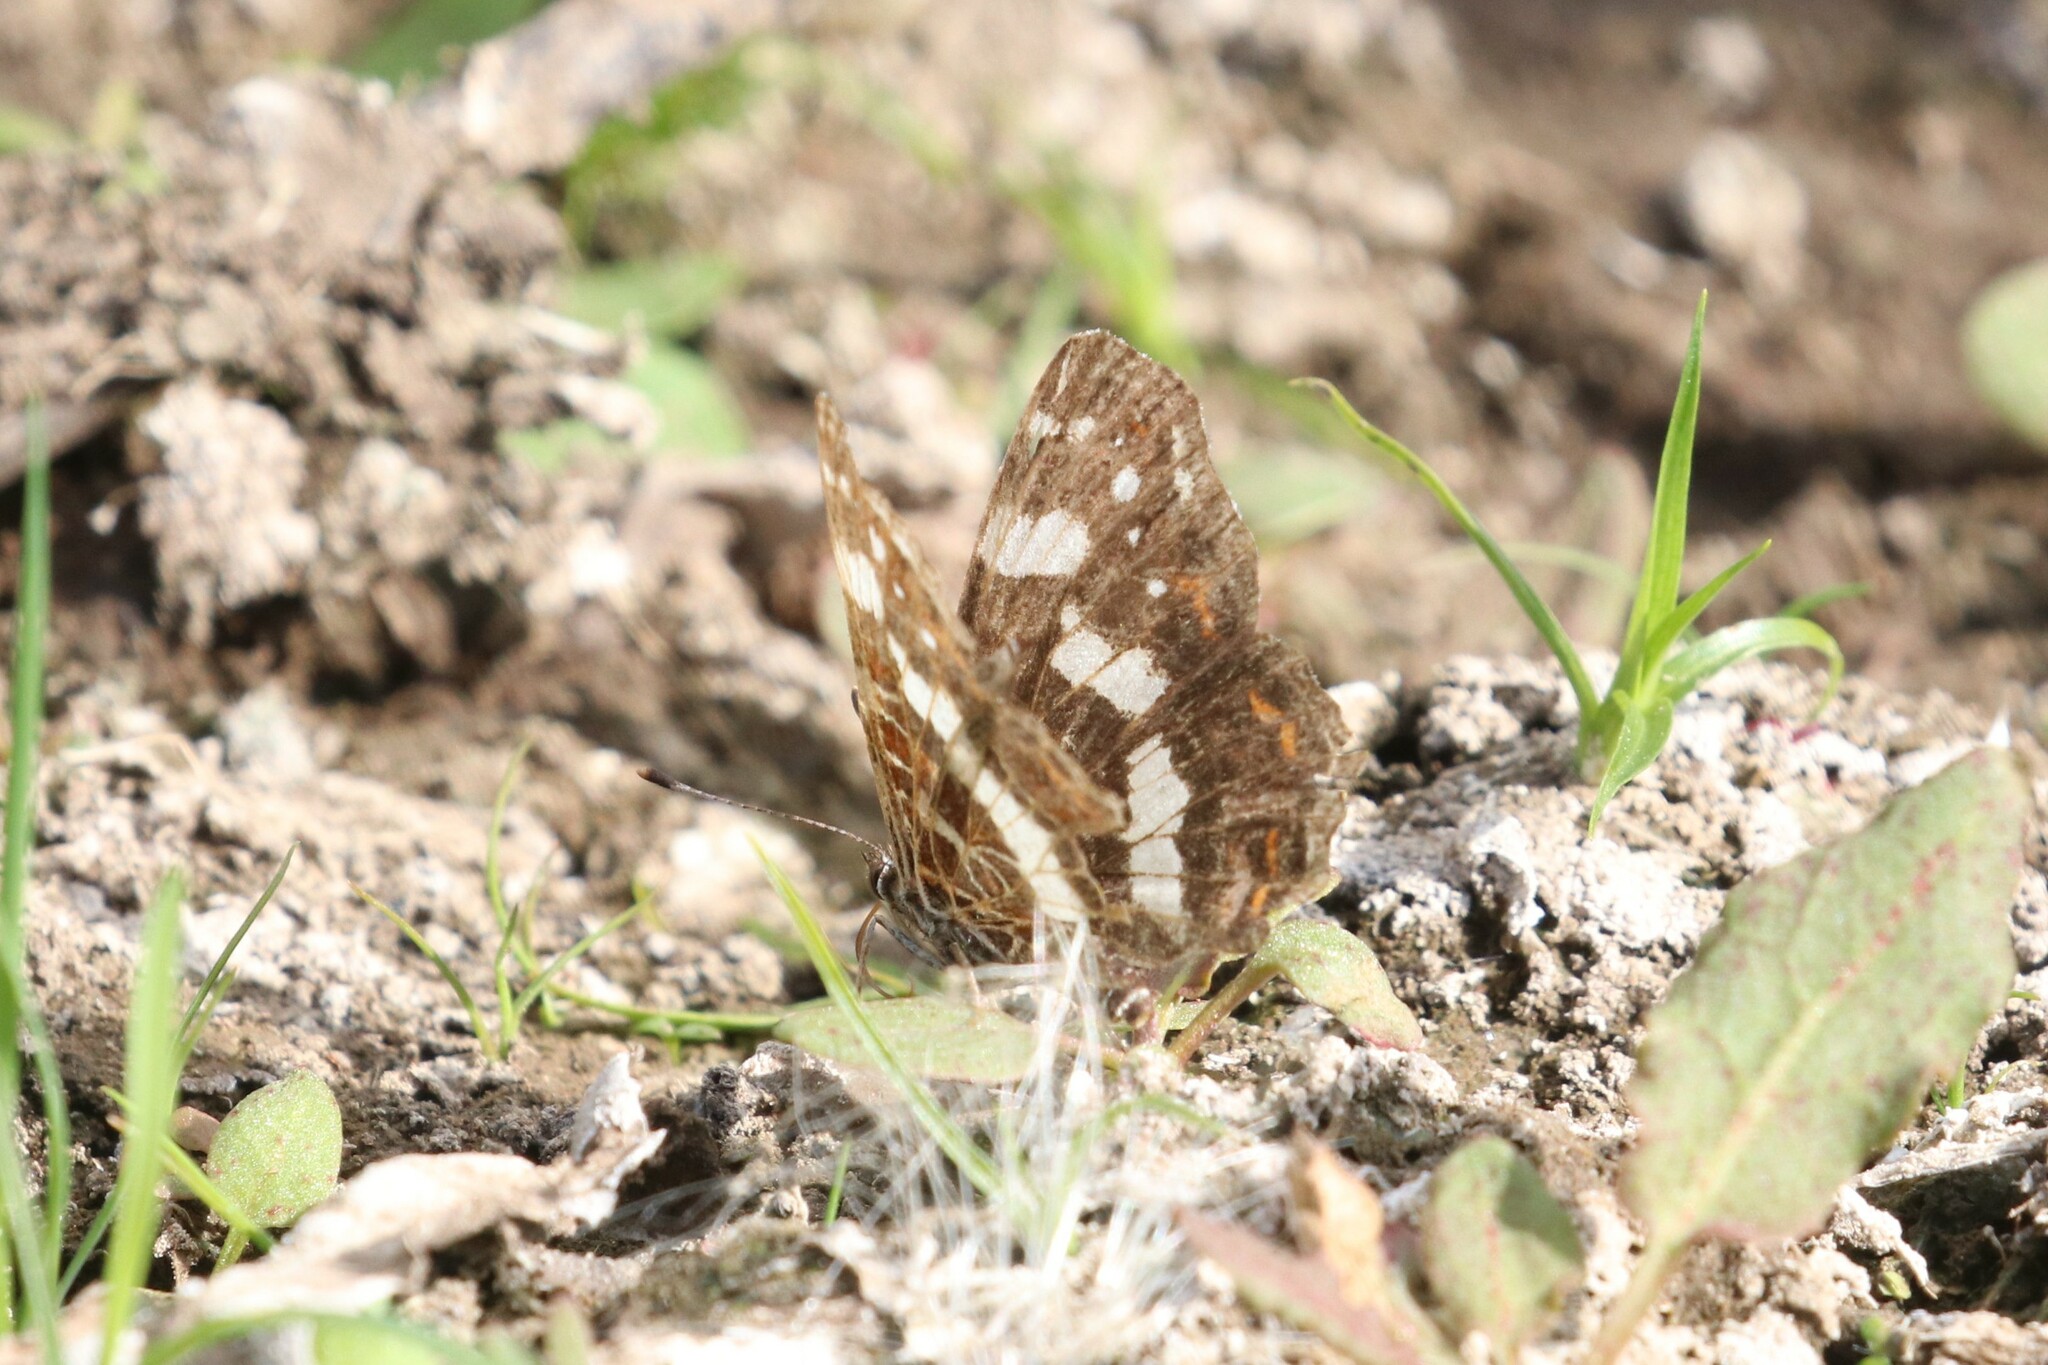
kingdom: Animalia
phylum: Arthropoda
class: Insecta
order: Lepidoptera
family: Nymphalidae
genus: Araschnia
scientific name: Araschnia levana
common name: Map butterfly
